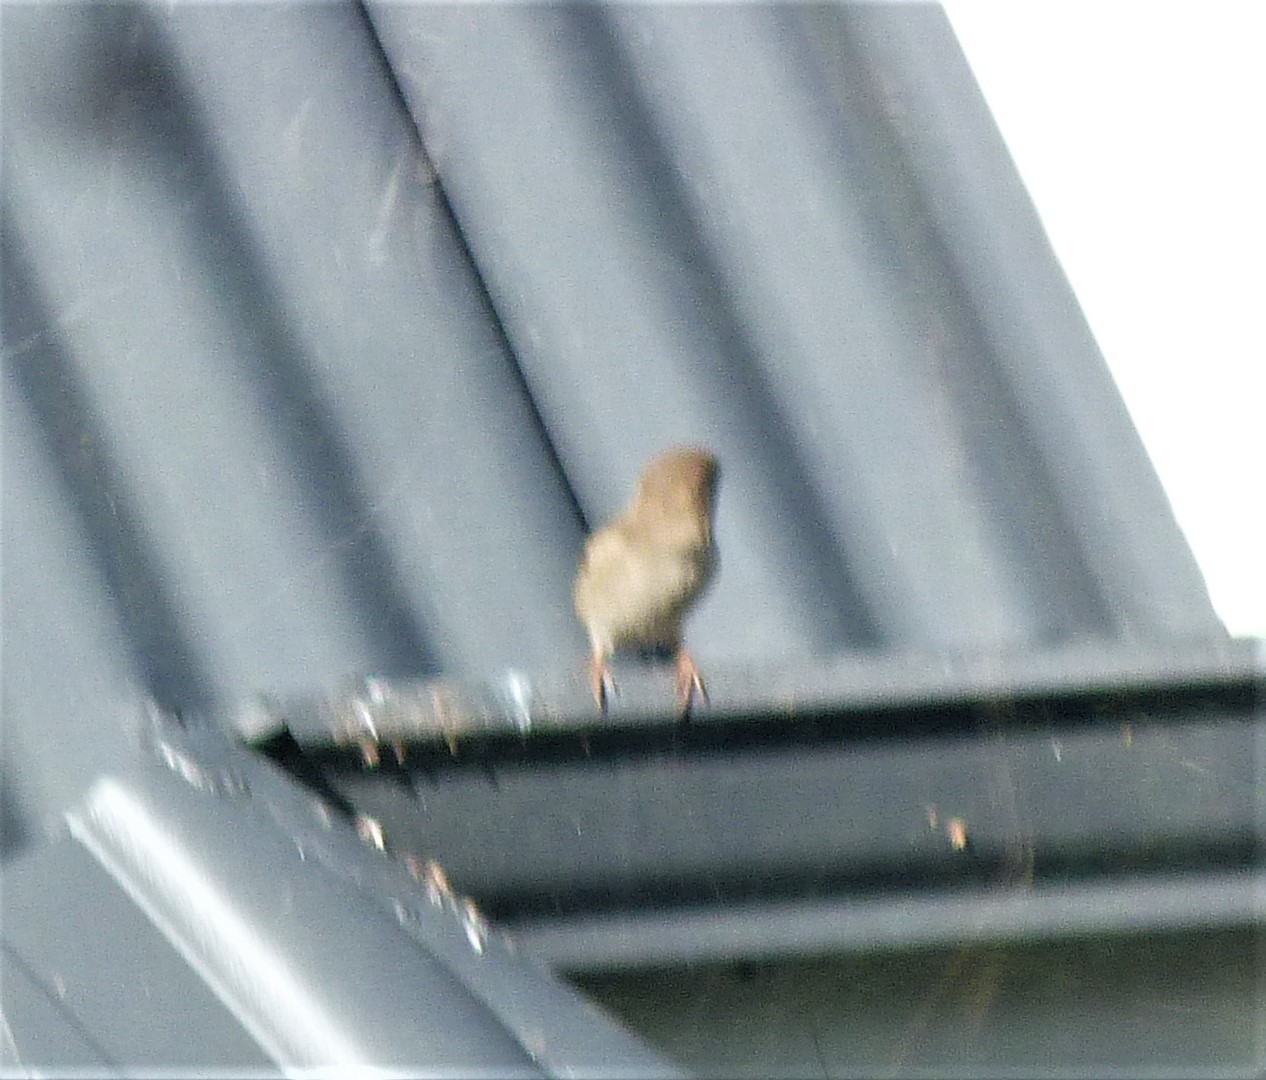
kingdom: Animalia
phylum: Chordata
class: Aves
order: Passeriformes
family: Passeridae
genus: Passer
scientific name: Passer domesticus
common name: House sparrow
